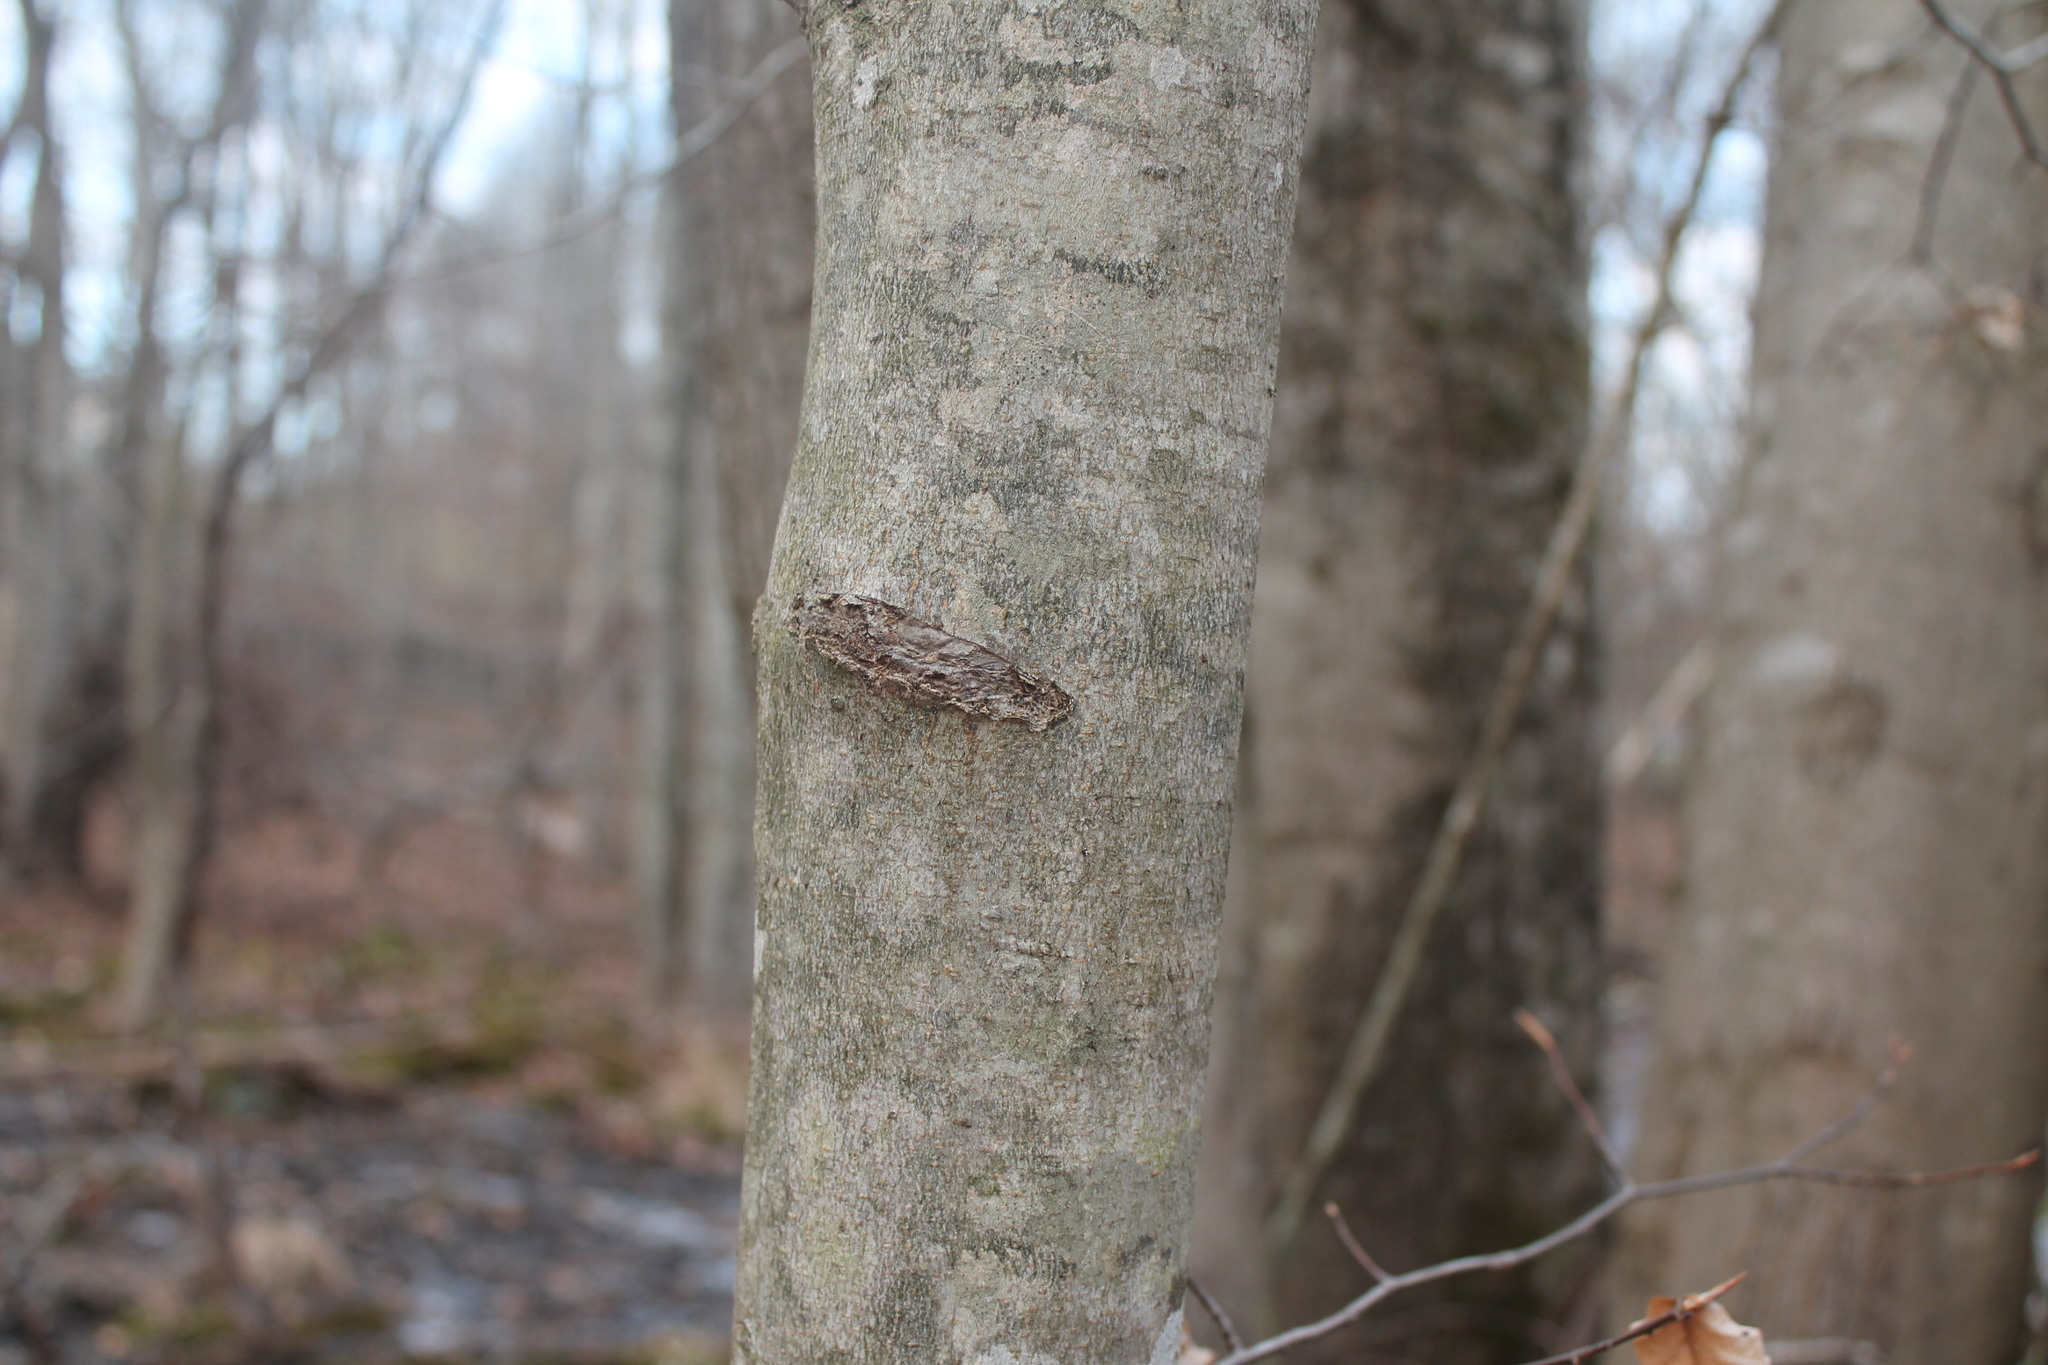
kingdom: Plantae
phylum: Tracheophyta
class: Magnoliopsida
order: Fagales
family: Fagaceae
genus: Fagus
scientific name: Fagus grandifolia
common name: American beech
